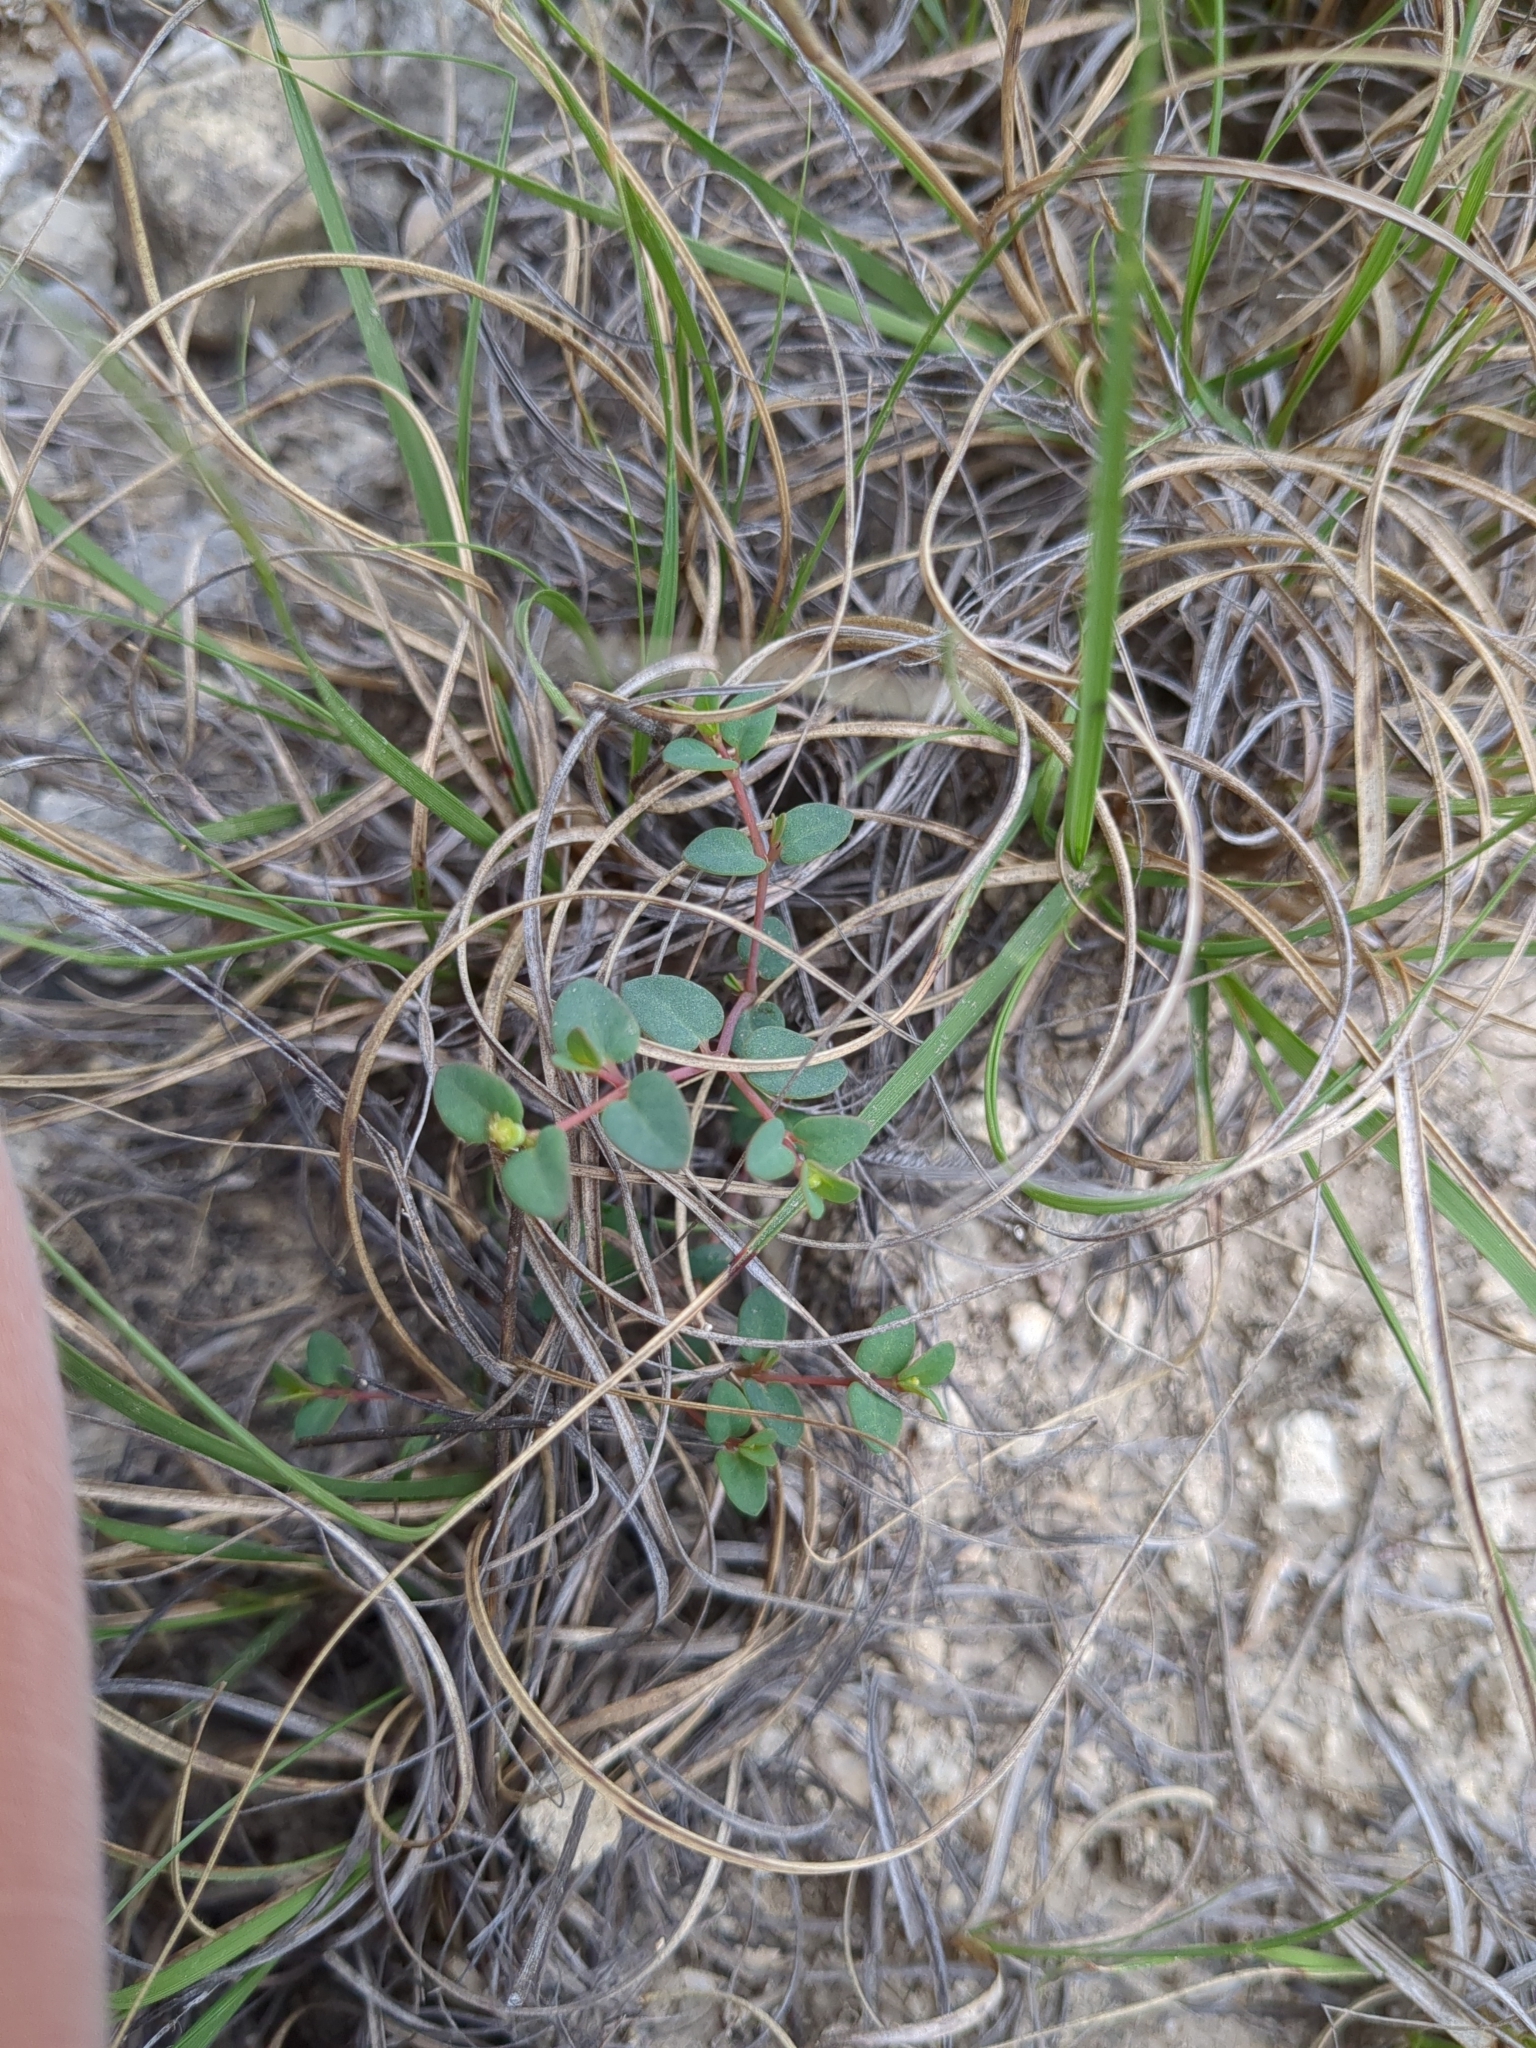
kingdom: Plantae
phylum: Tracheophyta
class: Magnoliopsida
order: Malpighiales
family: Euphorbiaceae
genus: Euphorbia
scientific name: Euphorbia fendleri
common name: Fendler's euphorbia
